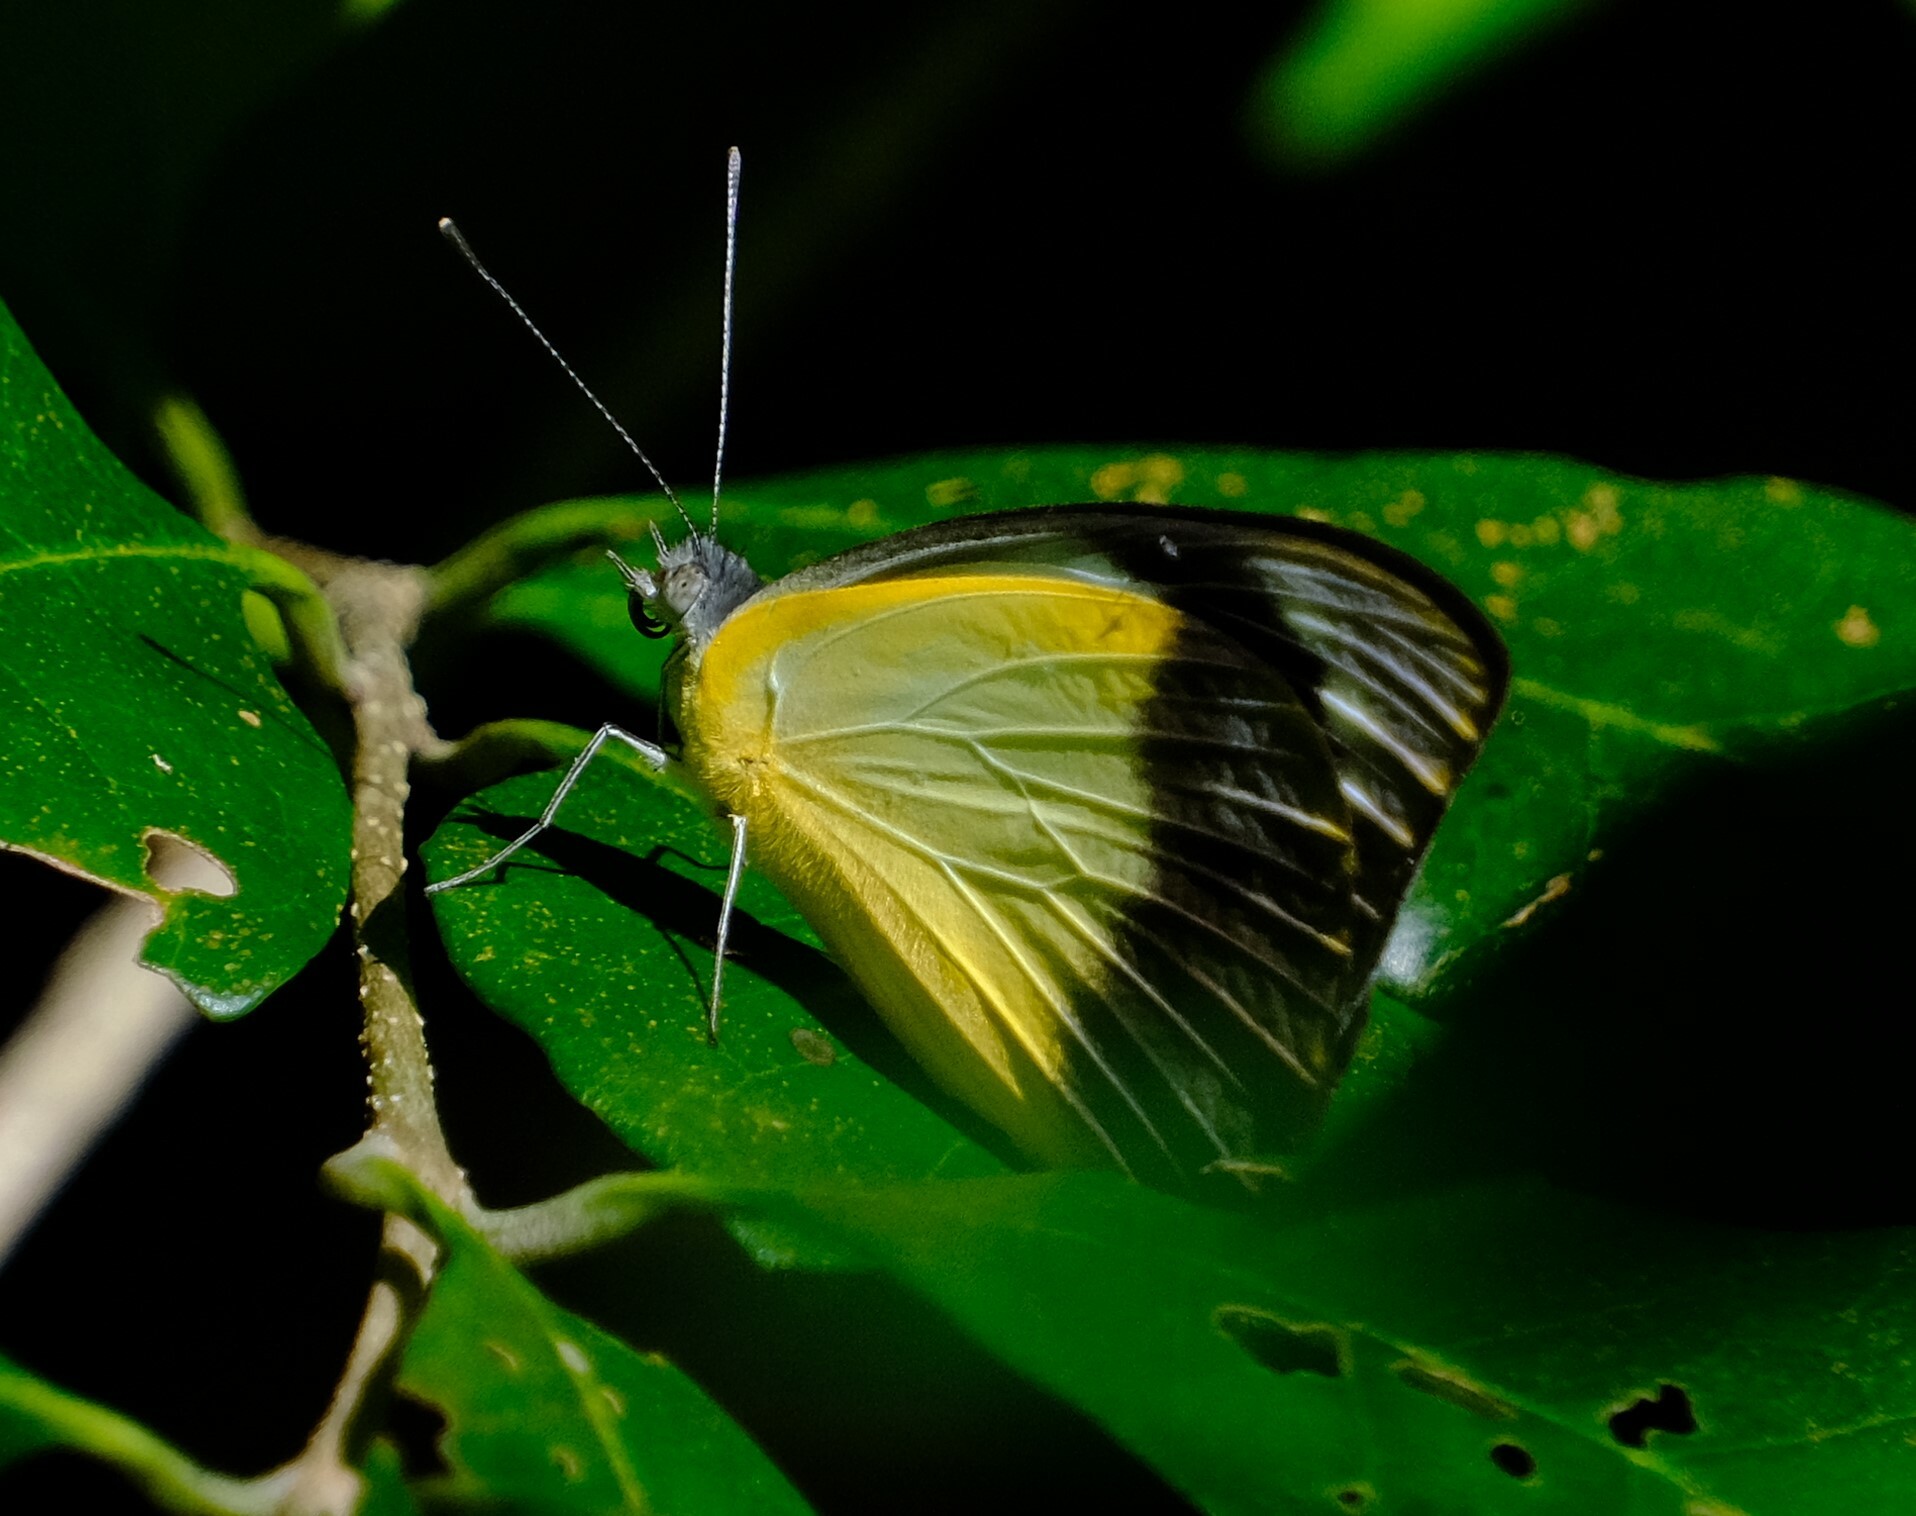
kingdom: Animalia
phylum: Arthropoda
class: Insecta
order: Lepidoptera
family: Pieridae
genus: Appias
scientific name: Appias paulina
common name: Ceylon lesser albatross
